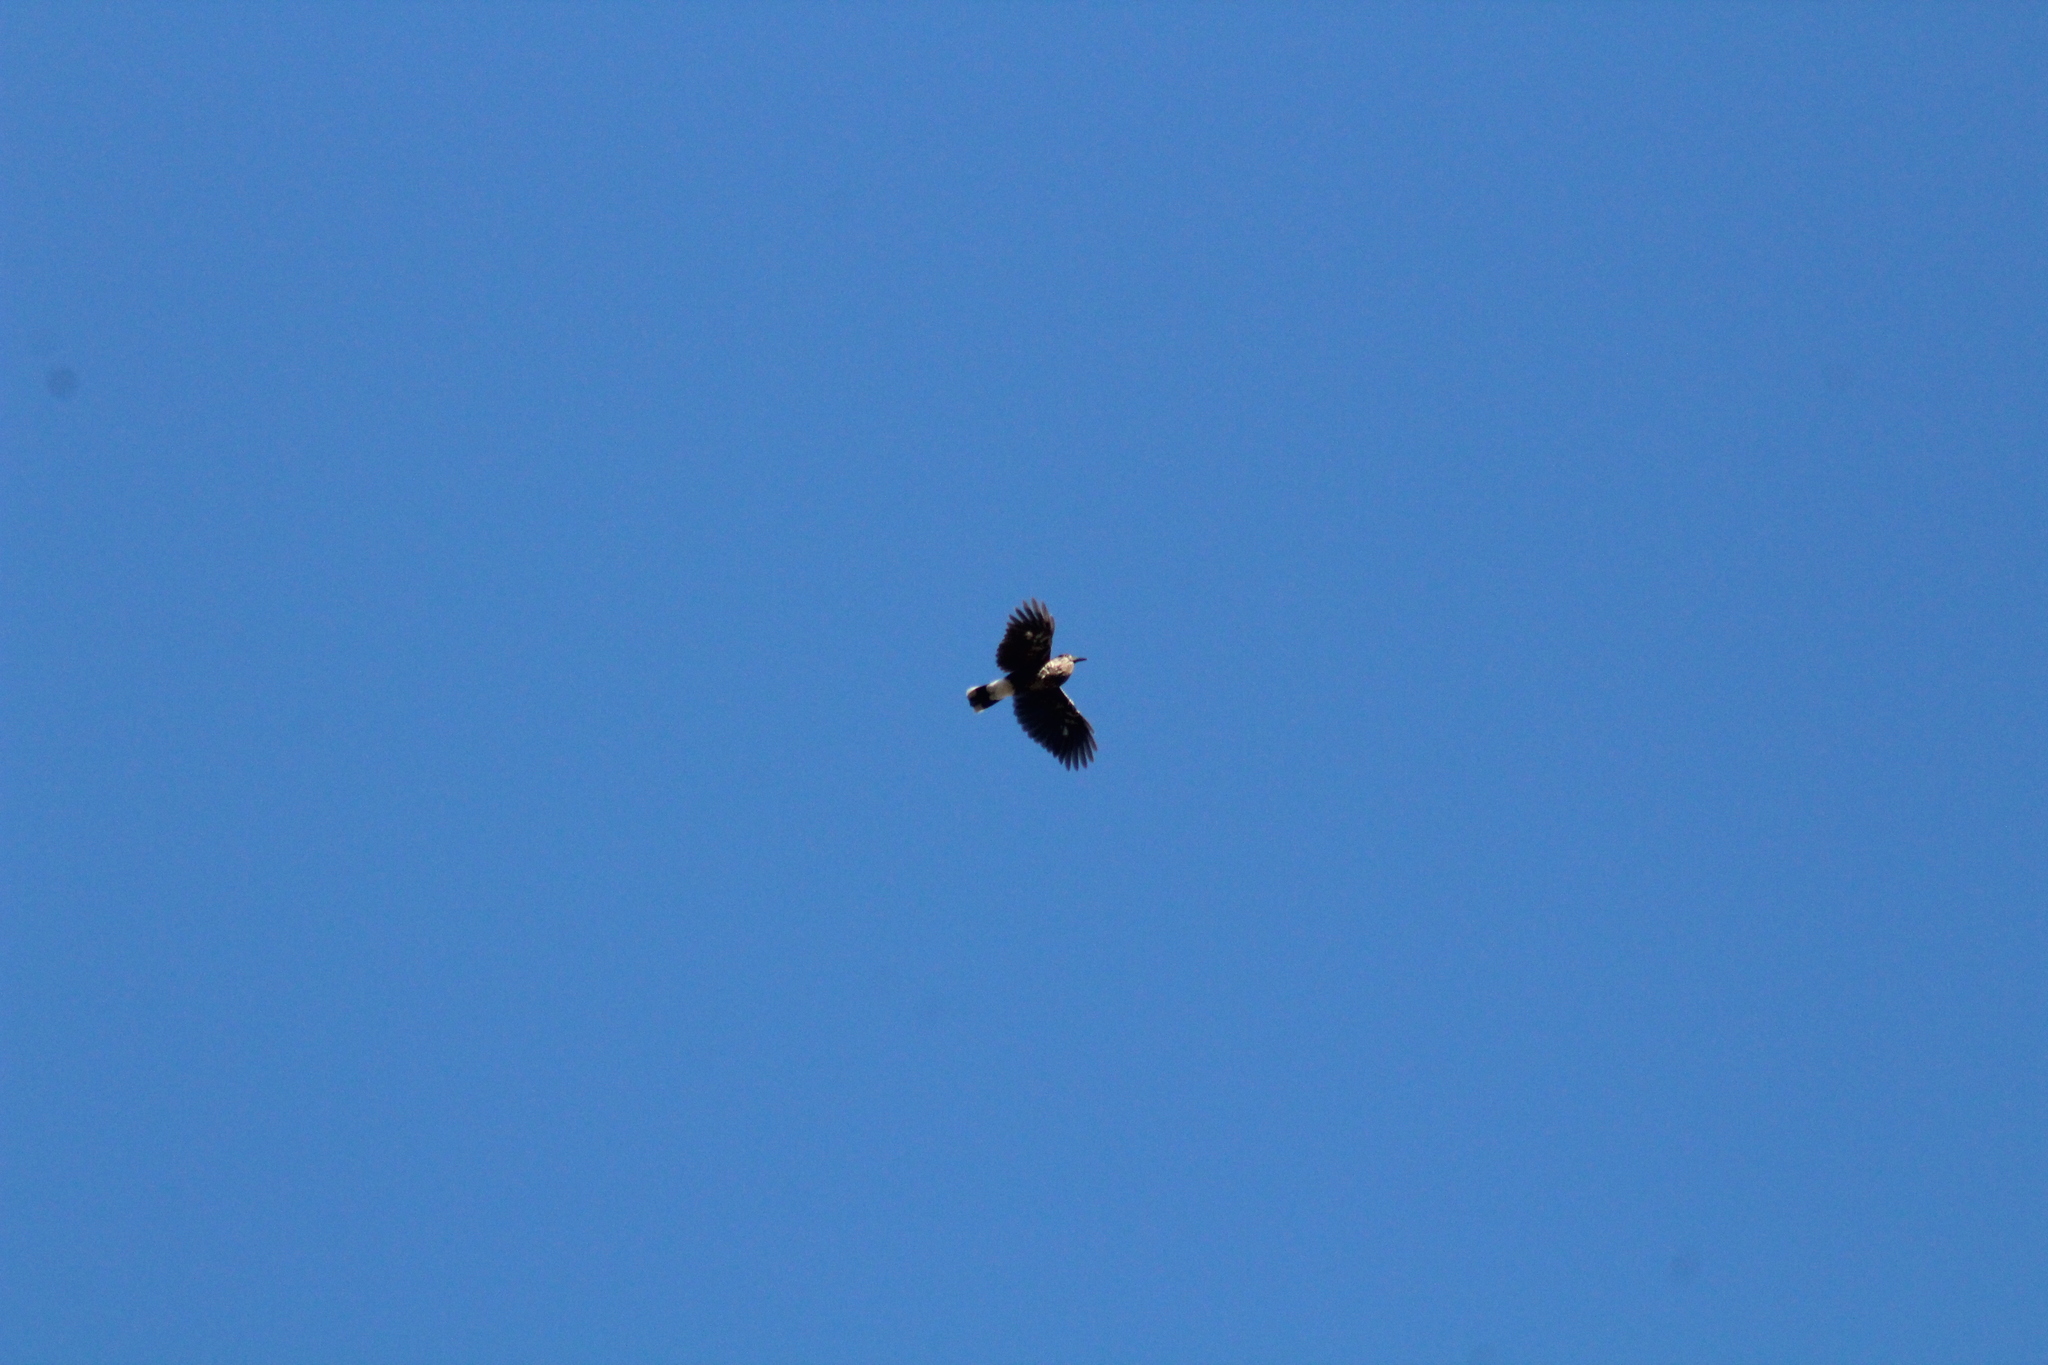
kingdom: Animalia
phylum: Chordata
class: Aves
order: Passeriformes
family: Corvidae
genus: Nucifraga
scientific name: Nucifraga caryocatactes
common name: Spotted nutcracker
